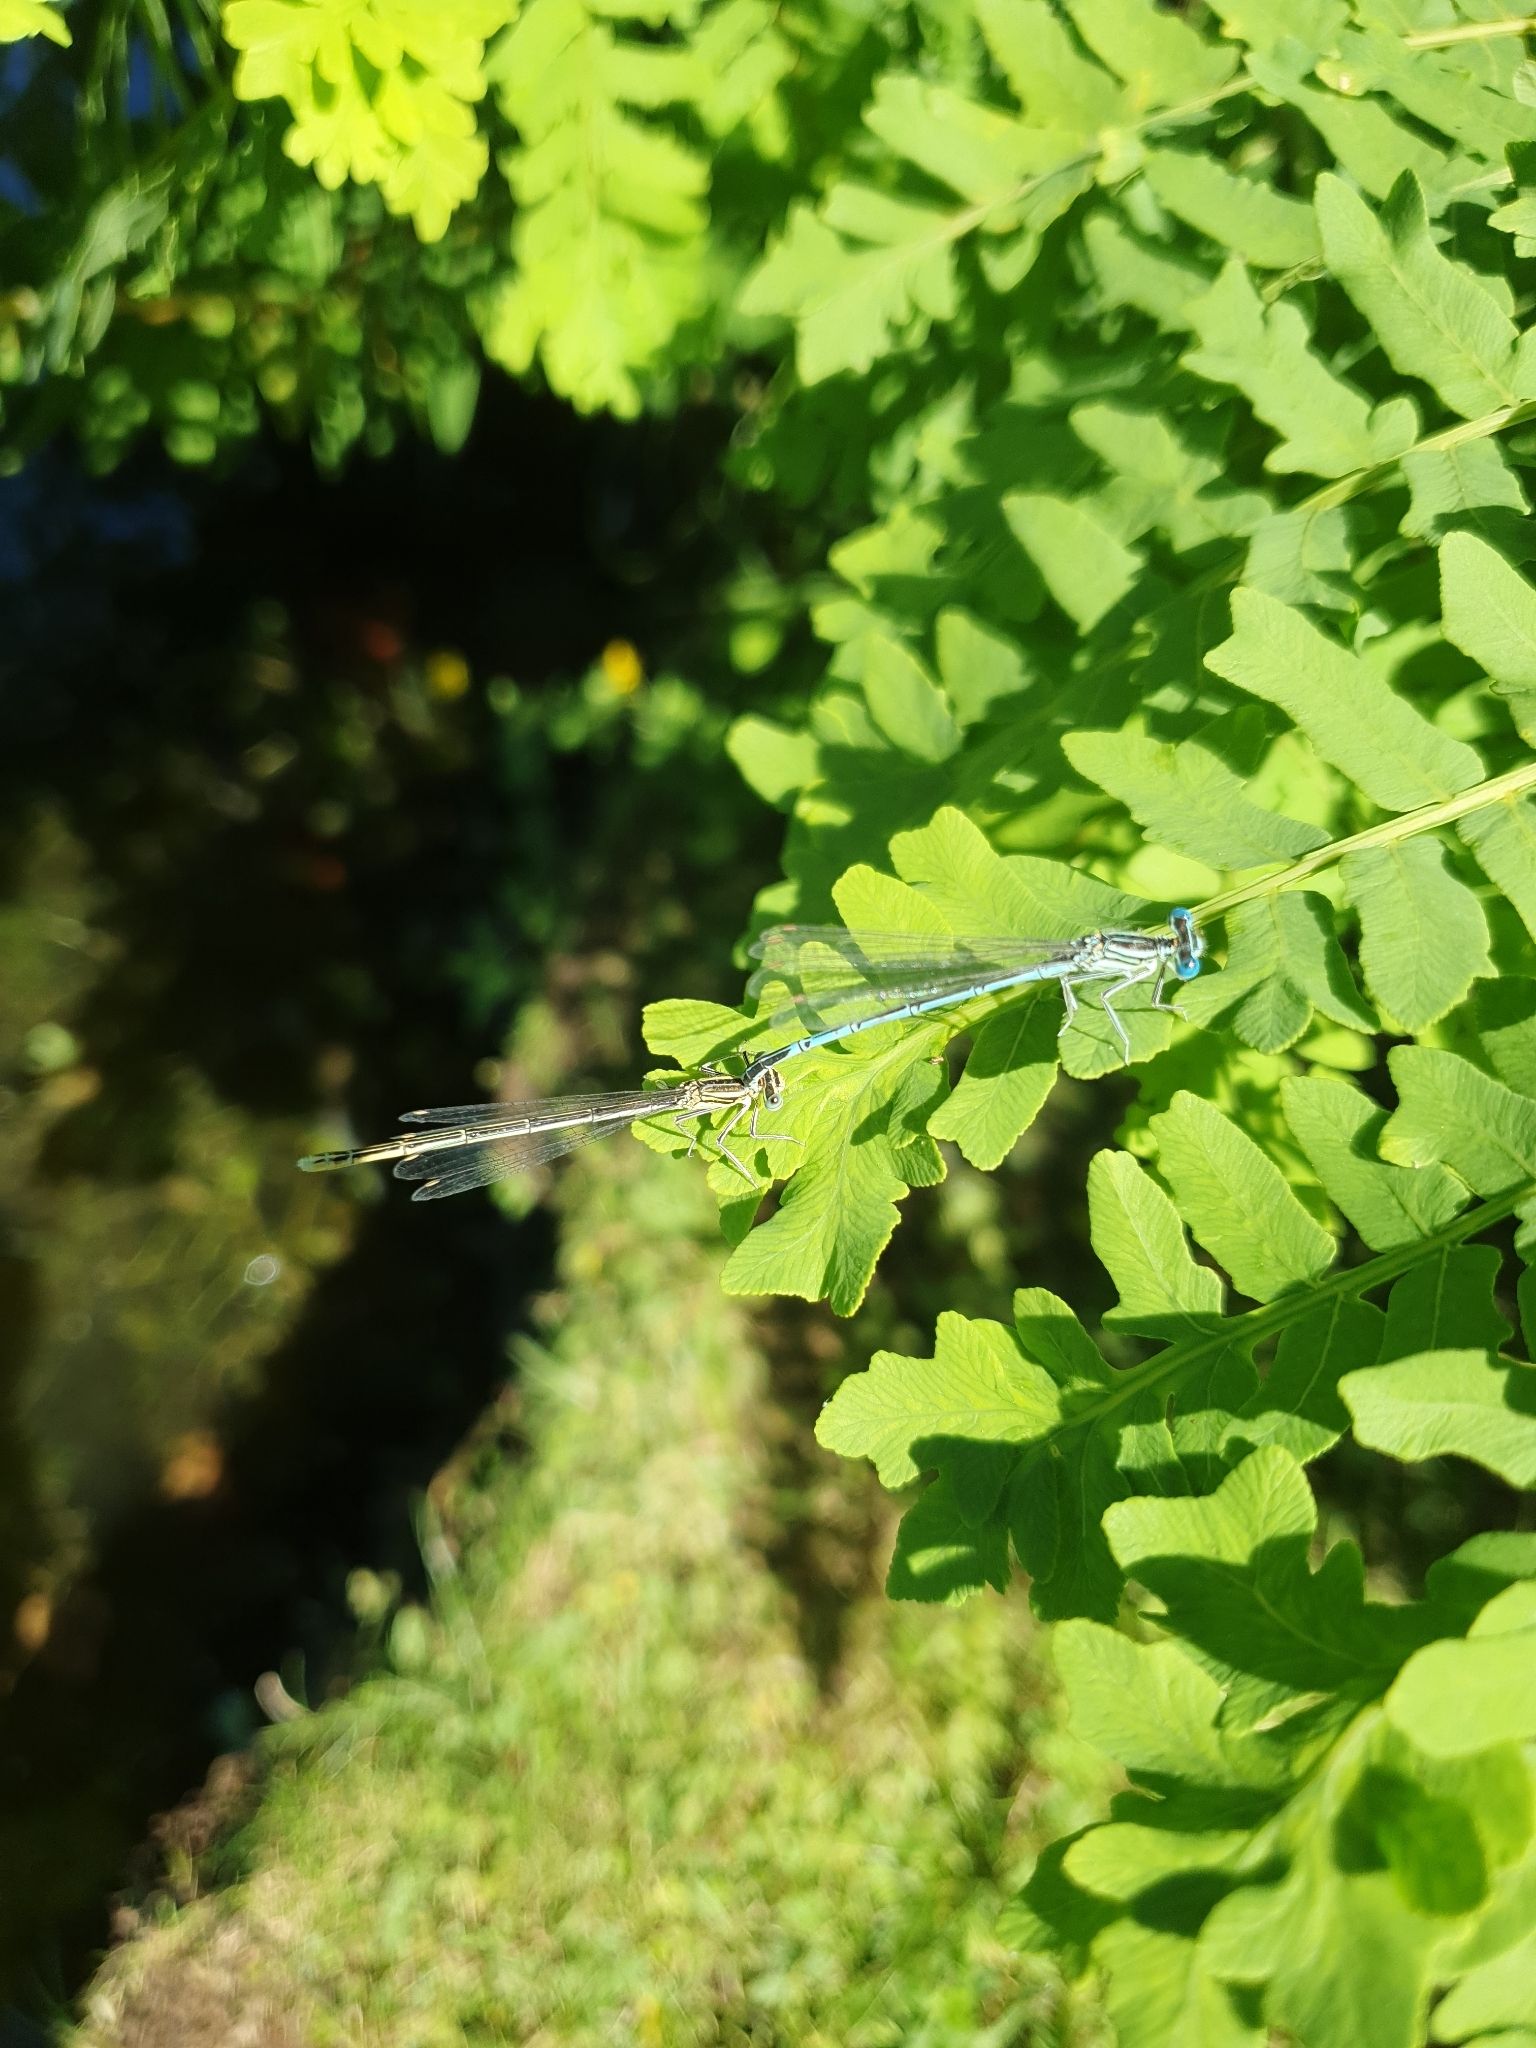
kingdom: Animalia
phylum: Arthropoda
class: Insecta
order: Odonata
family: Platycnemididae
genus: Platycnemis
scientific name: Platycnemis pennipes
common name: White-legged damselfly
